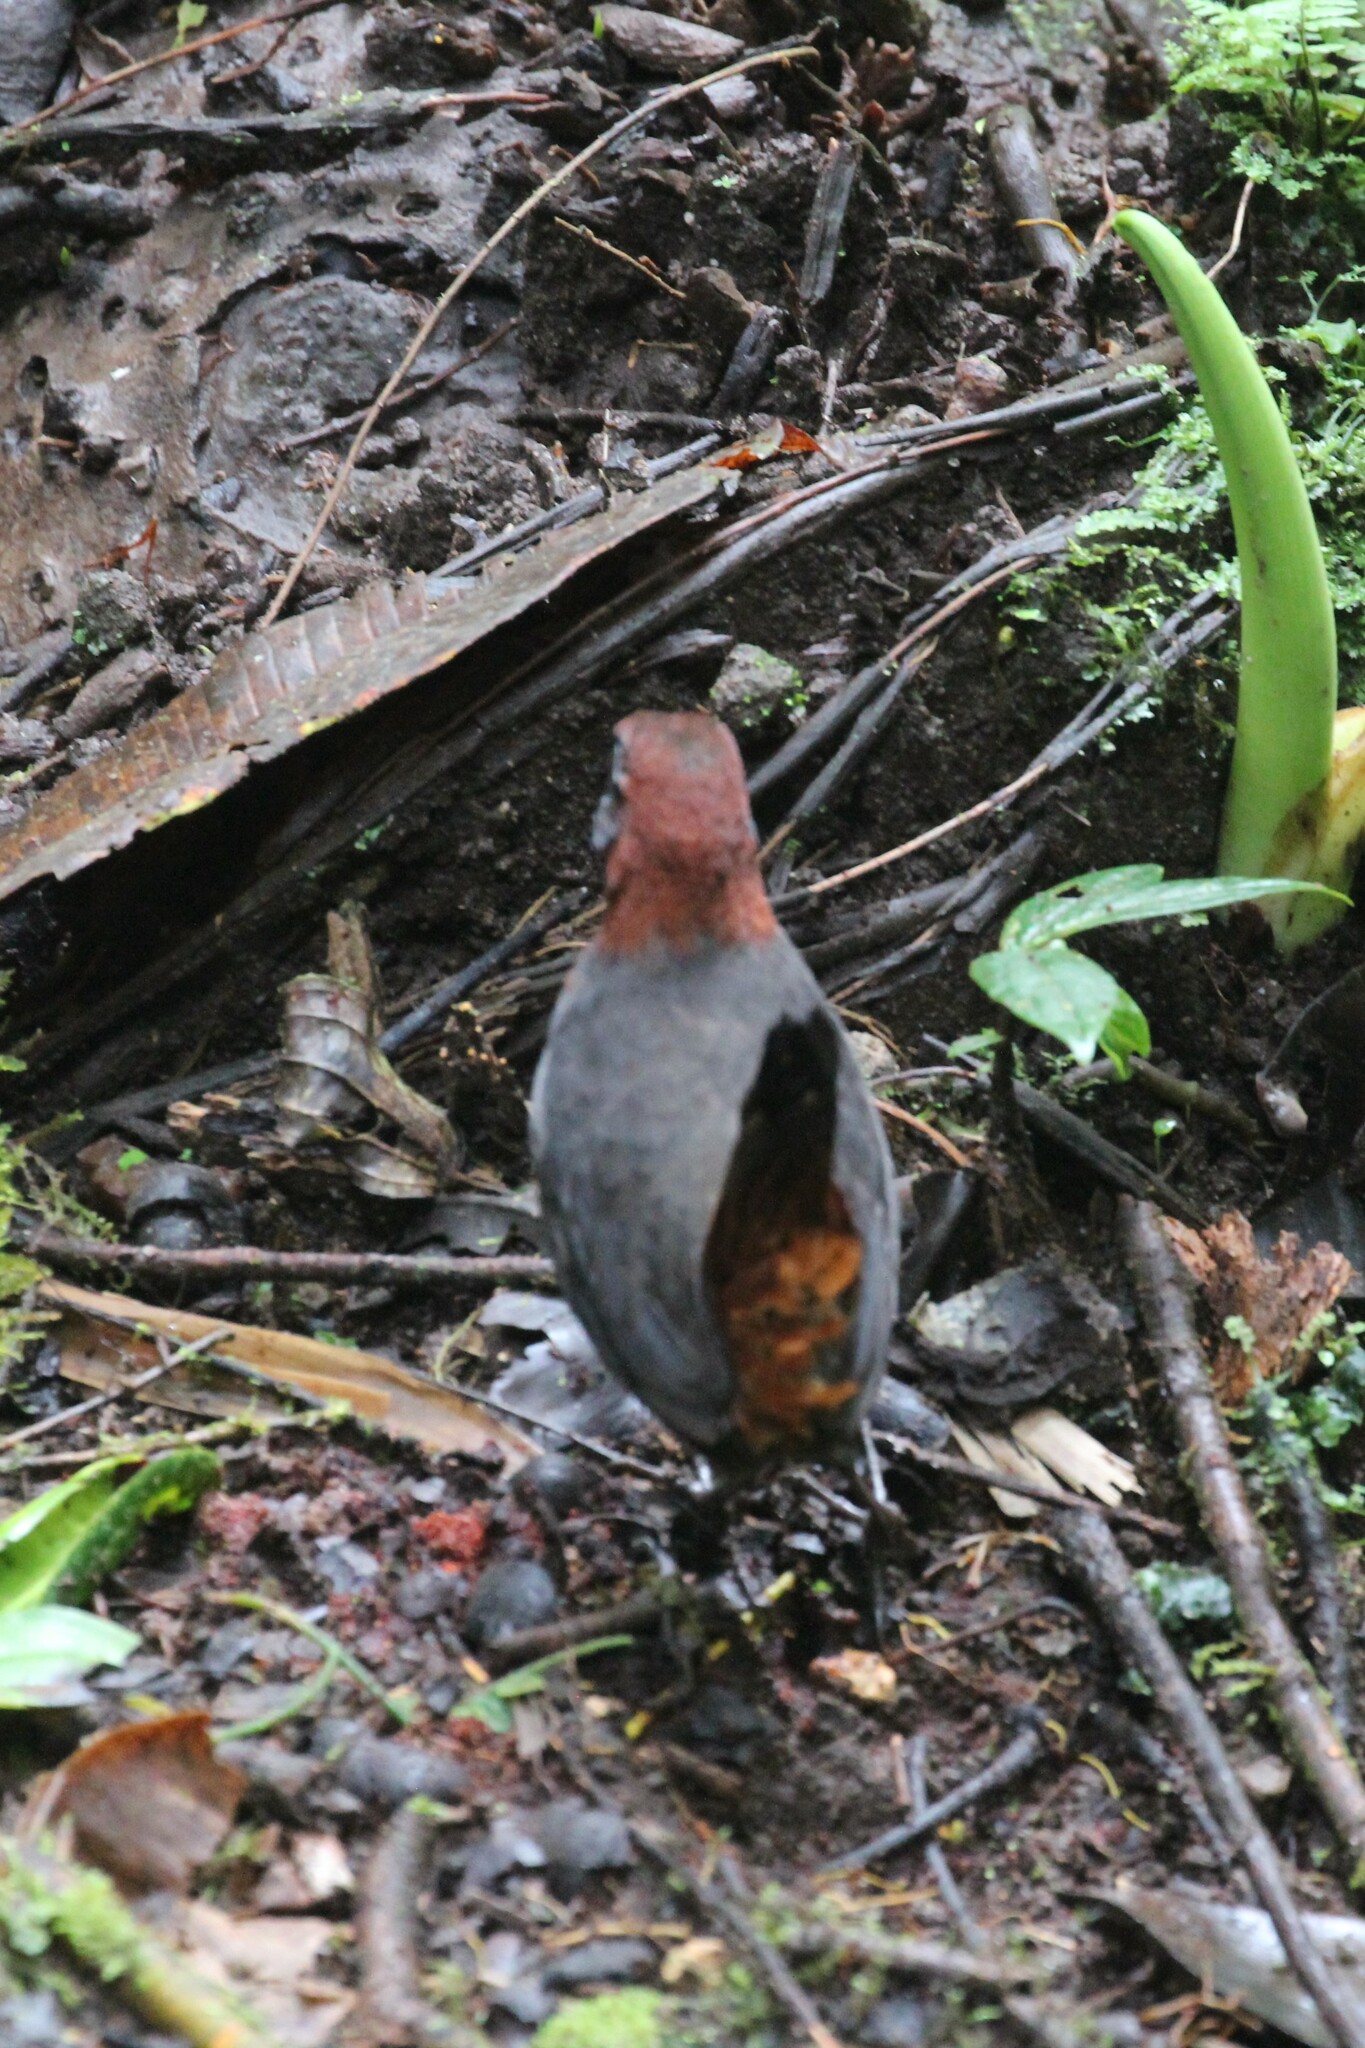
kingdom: Animalia
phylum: Chordata
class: Aves
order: Passeriformes
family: Formicariidae
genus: Formicarius
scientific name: Formicarius rufipectus
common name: Rufous-breasted antthrush
